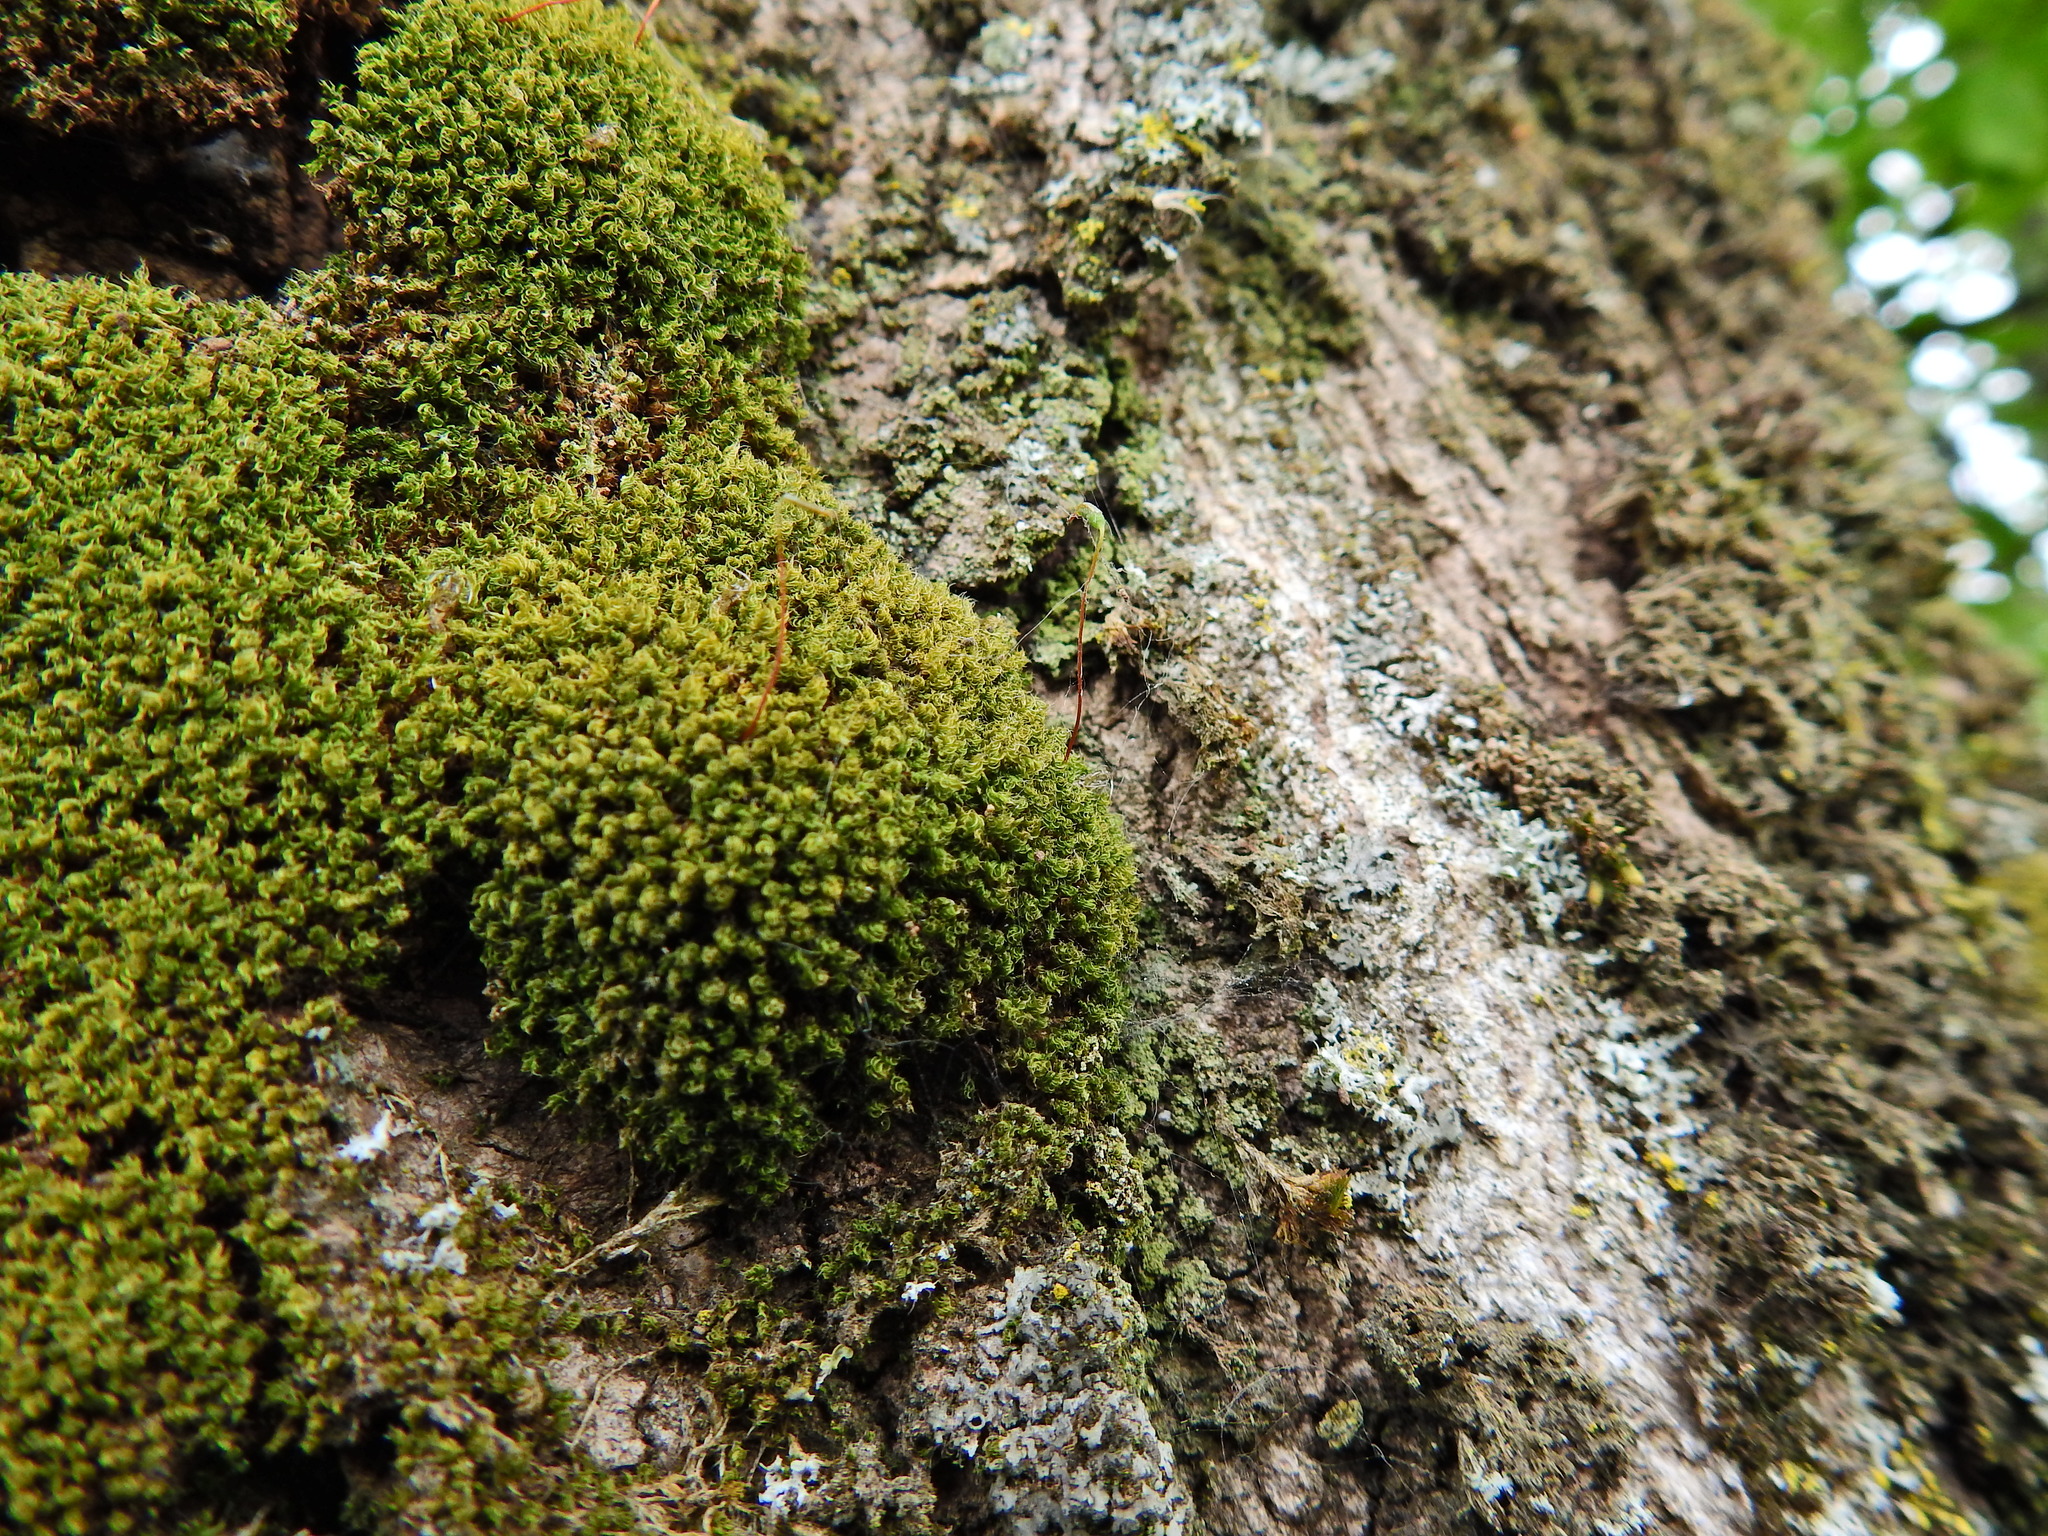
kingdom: Plantae
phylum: Bryophyta
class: Bryopsida
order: Bryales
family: Bryaceae
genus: Rosulabryum
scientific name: Rosulabryum capillare
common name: Capillary thread-moss
